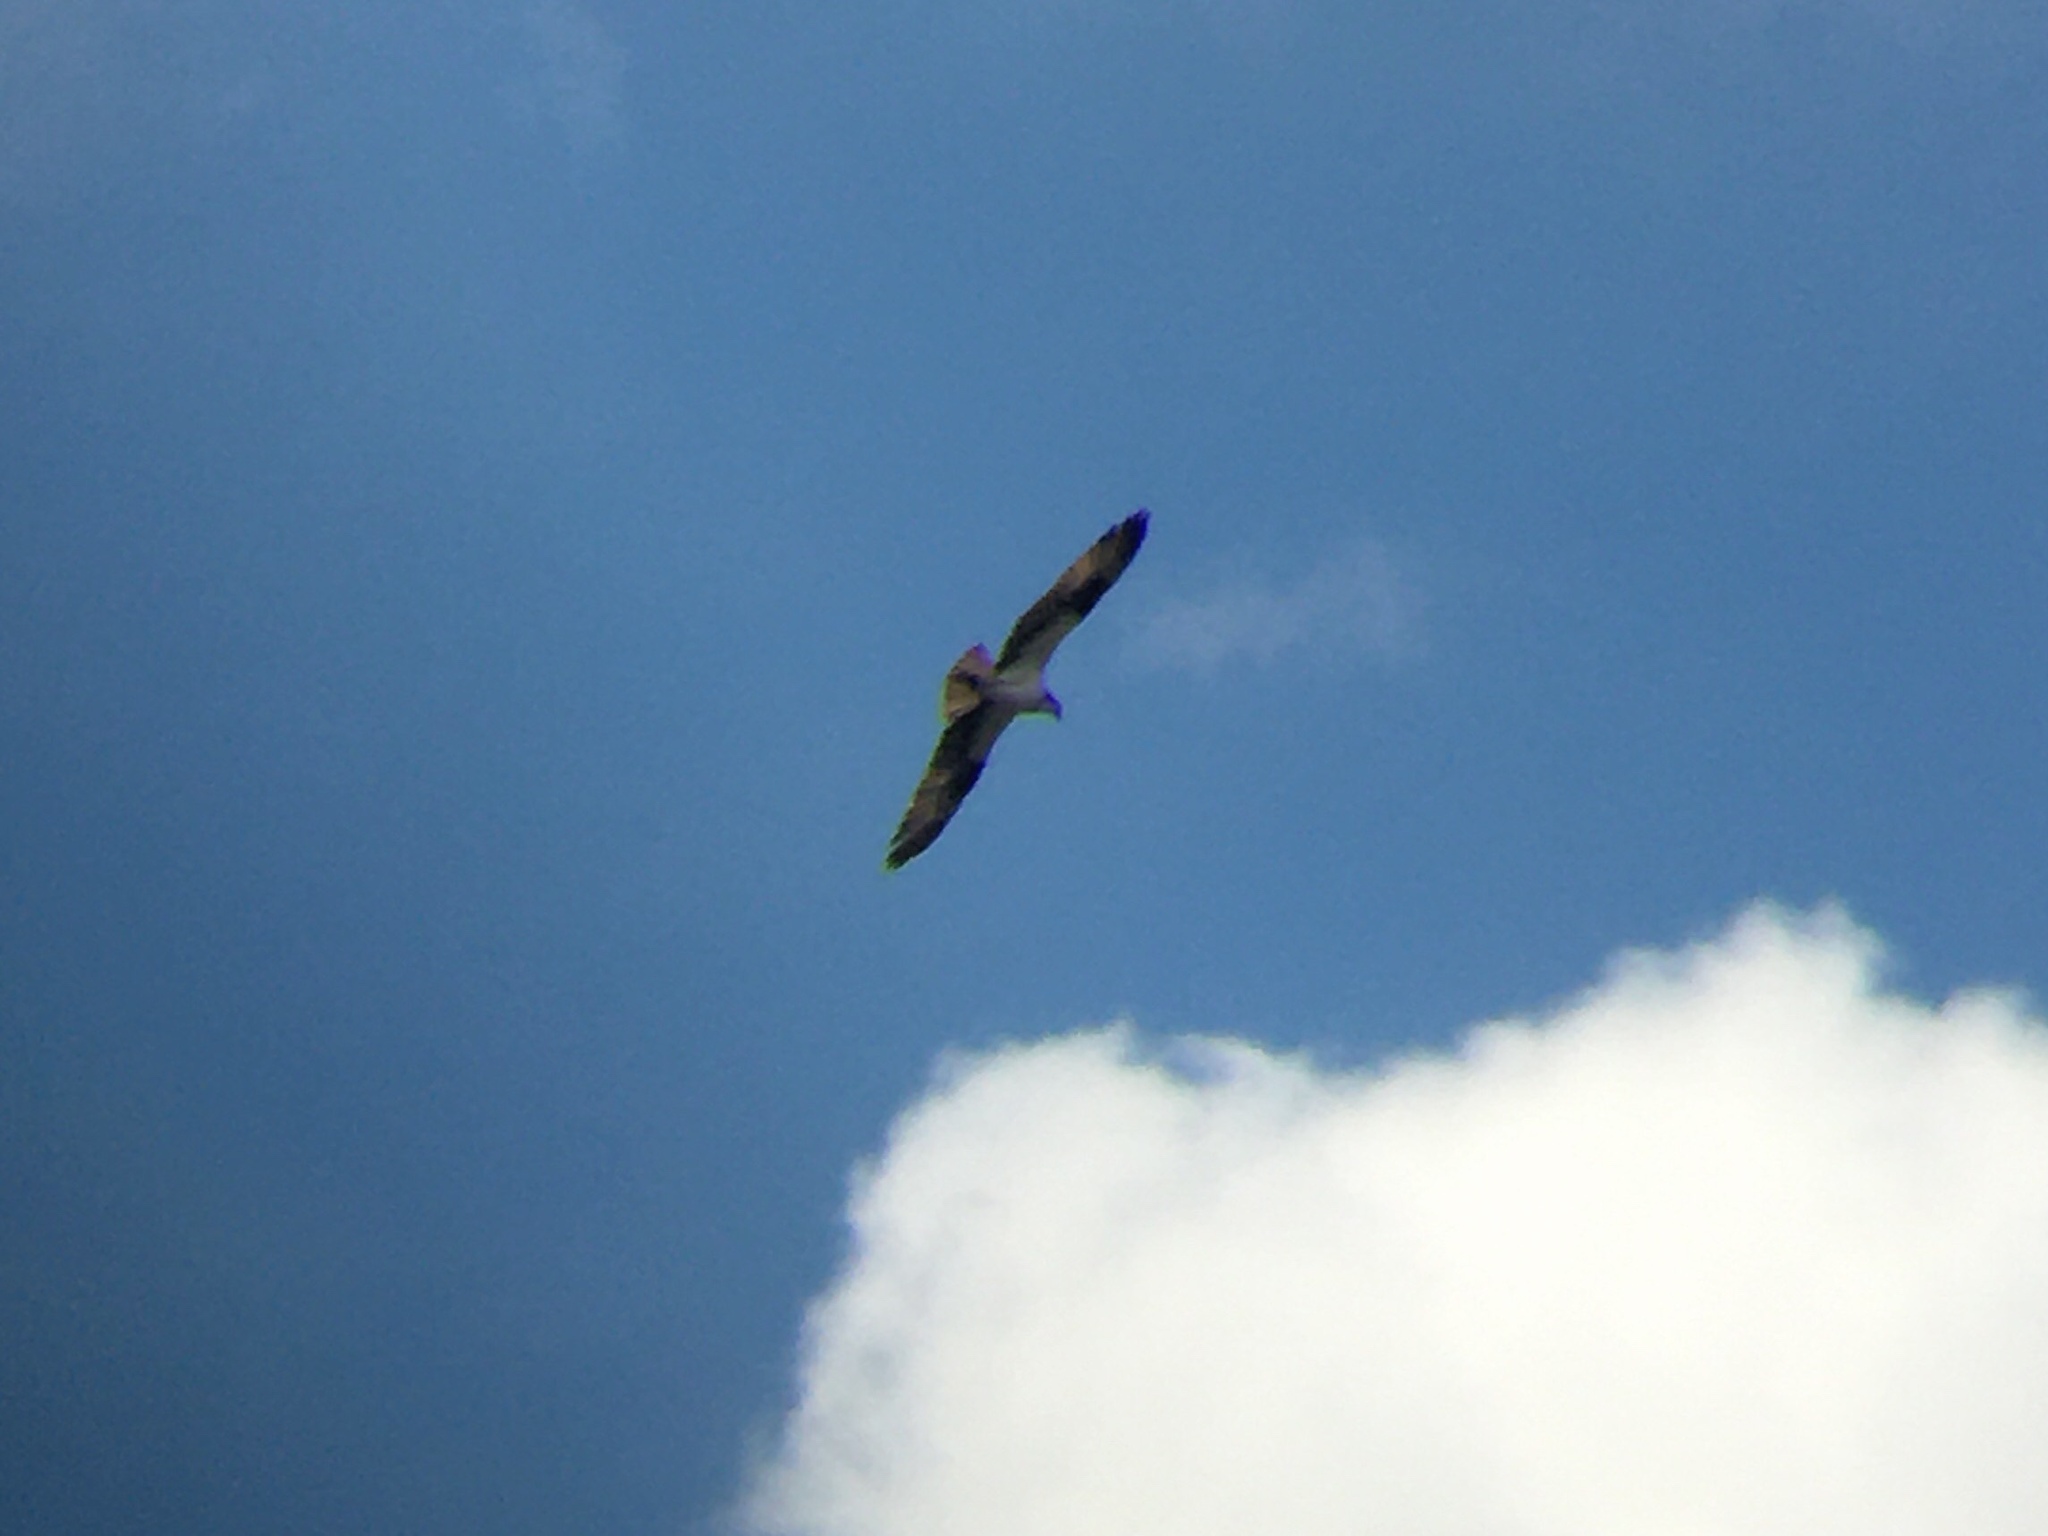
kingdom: Animalia
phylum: Chordata
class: Aves
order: Accipitriformes
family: Pandionidae
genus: Pandion
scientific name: Pandion haliaetus
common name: Osprey
